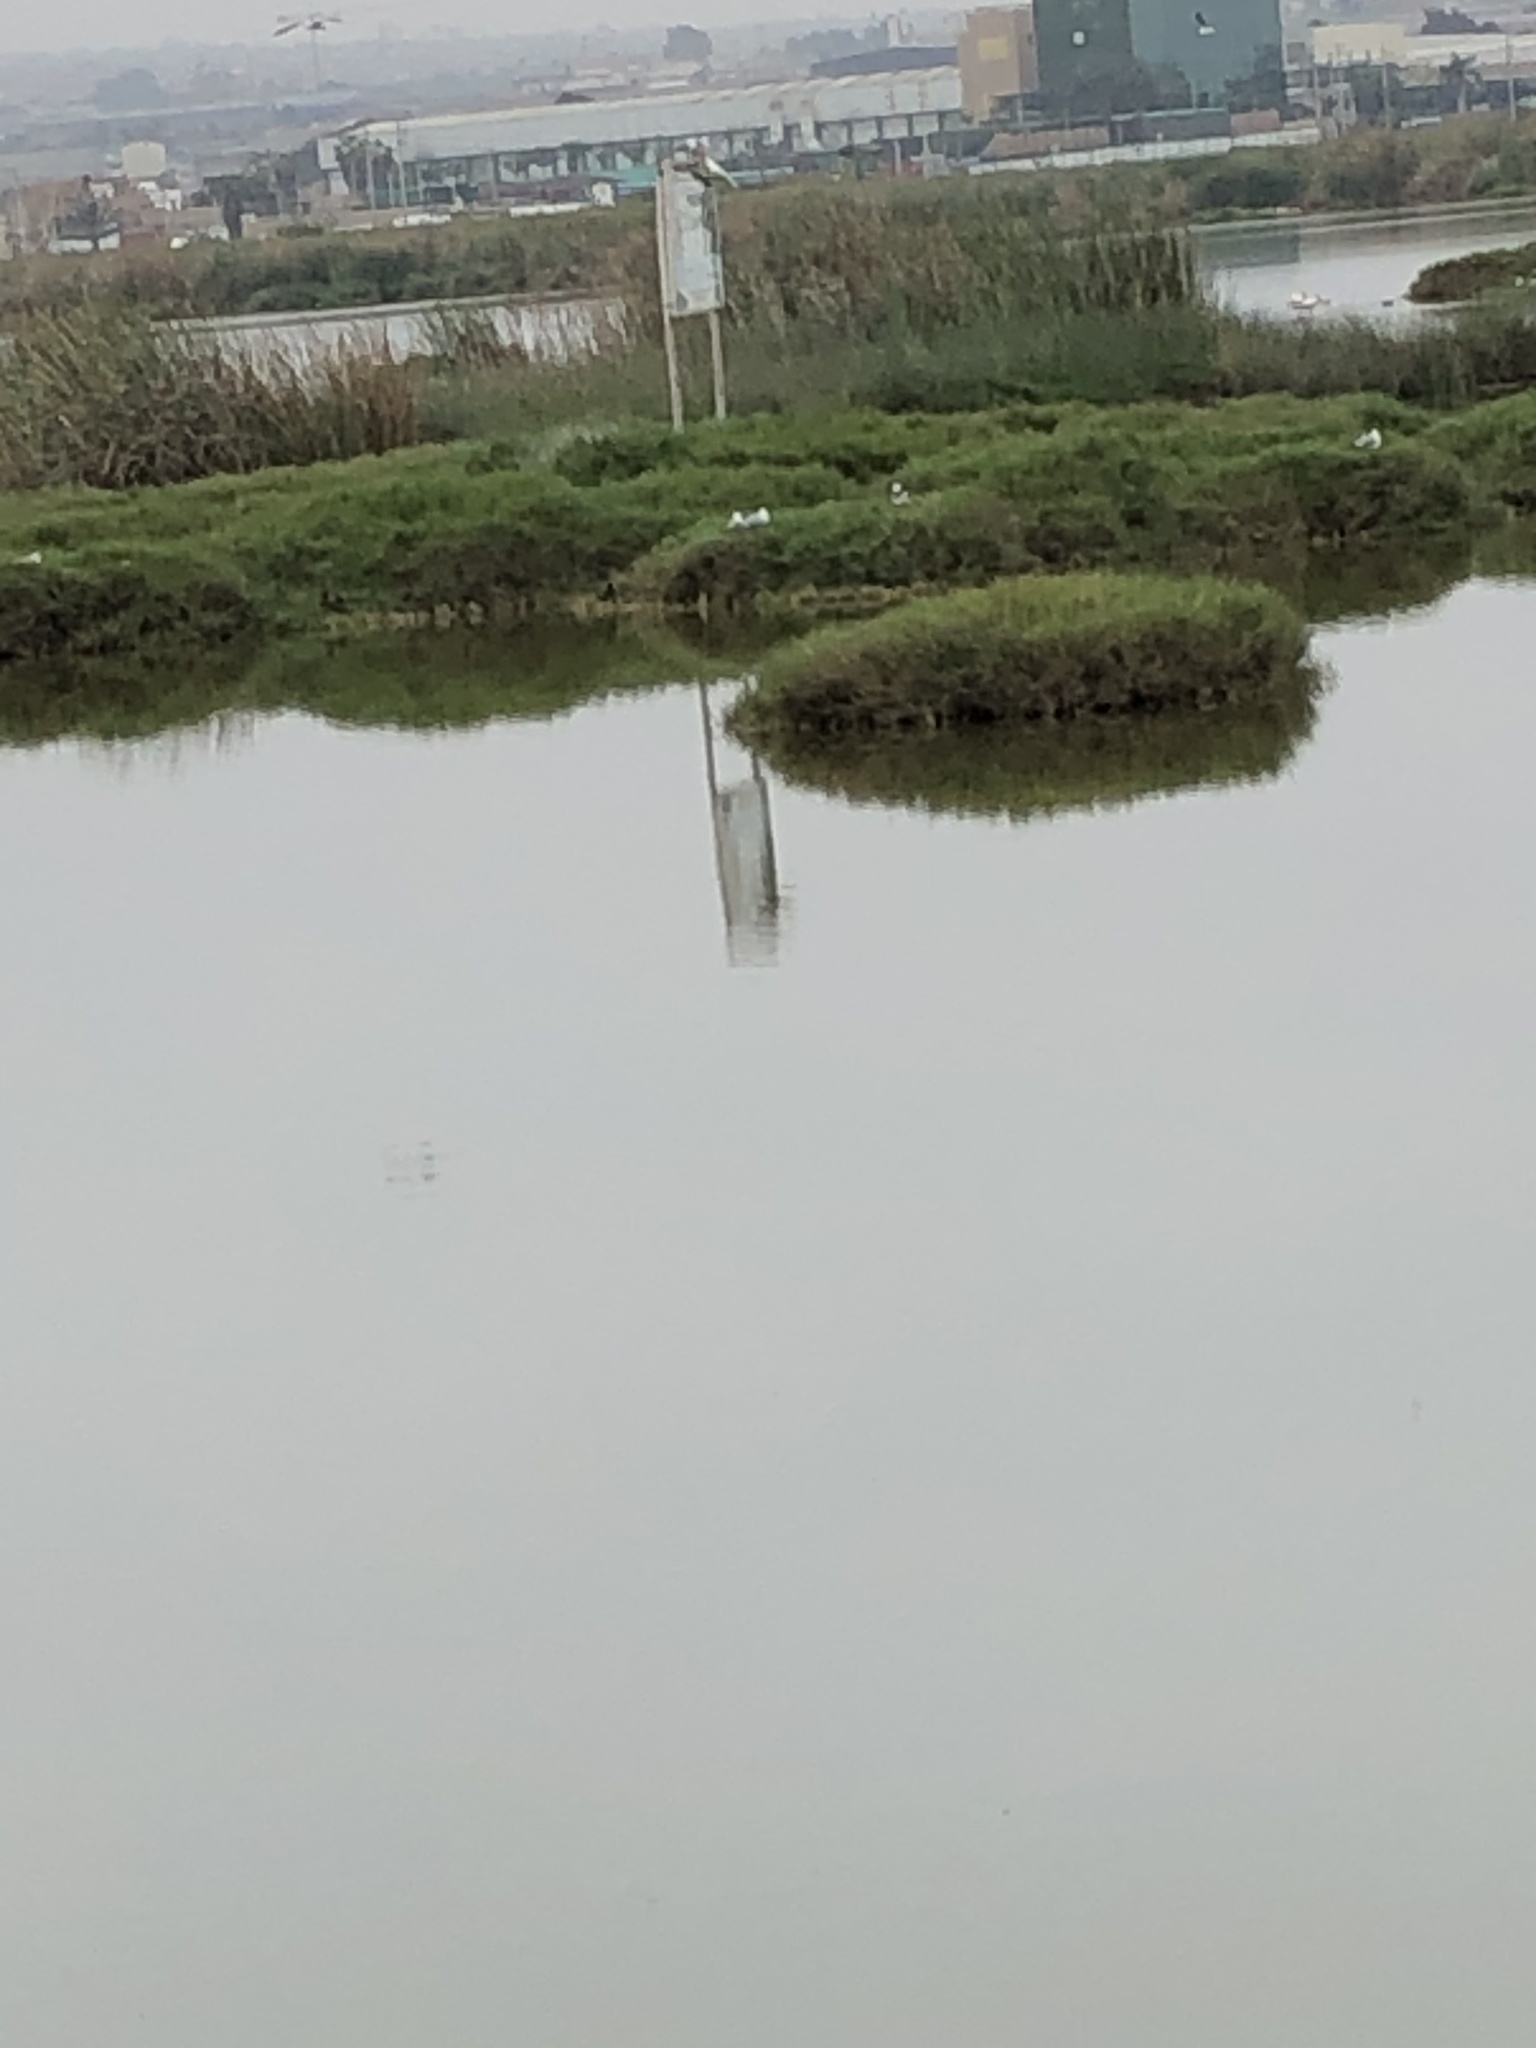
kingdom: Animalia
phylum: Chordata
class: Aves
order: Charadriiformes
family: Laridae
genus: Chroicocephalus
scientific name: Chroicocephalus cirrocephalus
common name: Grey-headed gull
